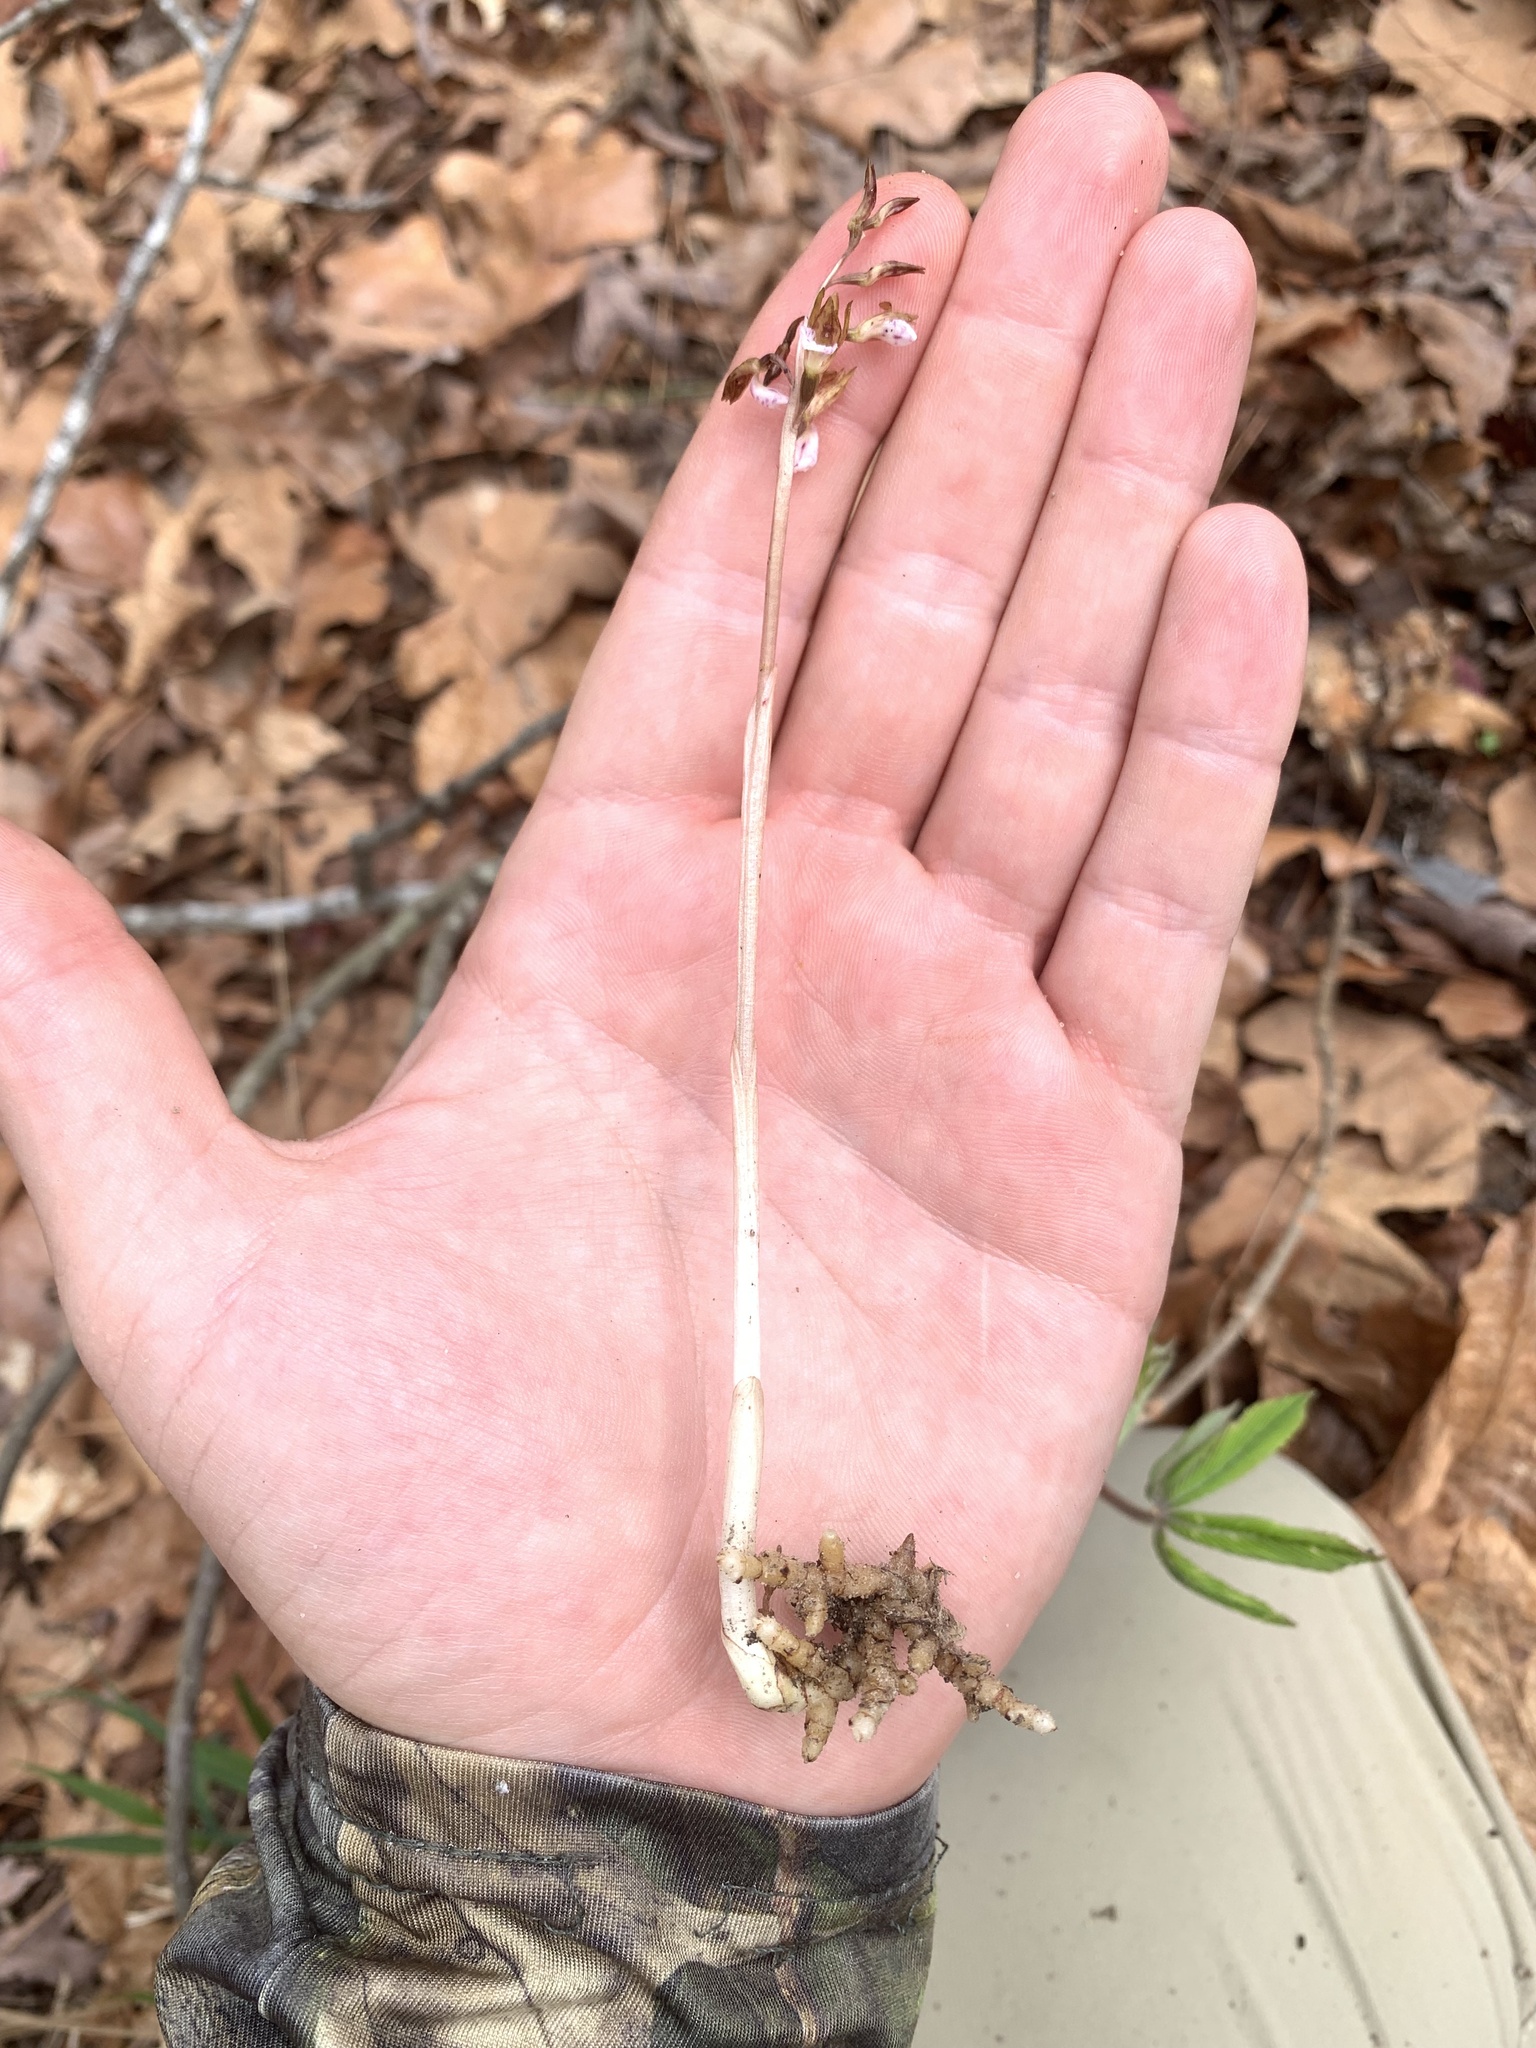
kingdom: Plantae
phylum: Tracheophyta
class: Liliopsida
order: Asparagales
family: Orchidaceae
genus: Corallorhiza
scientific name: Corallorhiza wisteriana
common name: Spring coralroot
